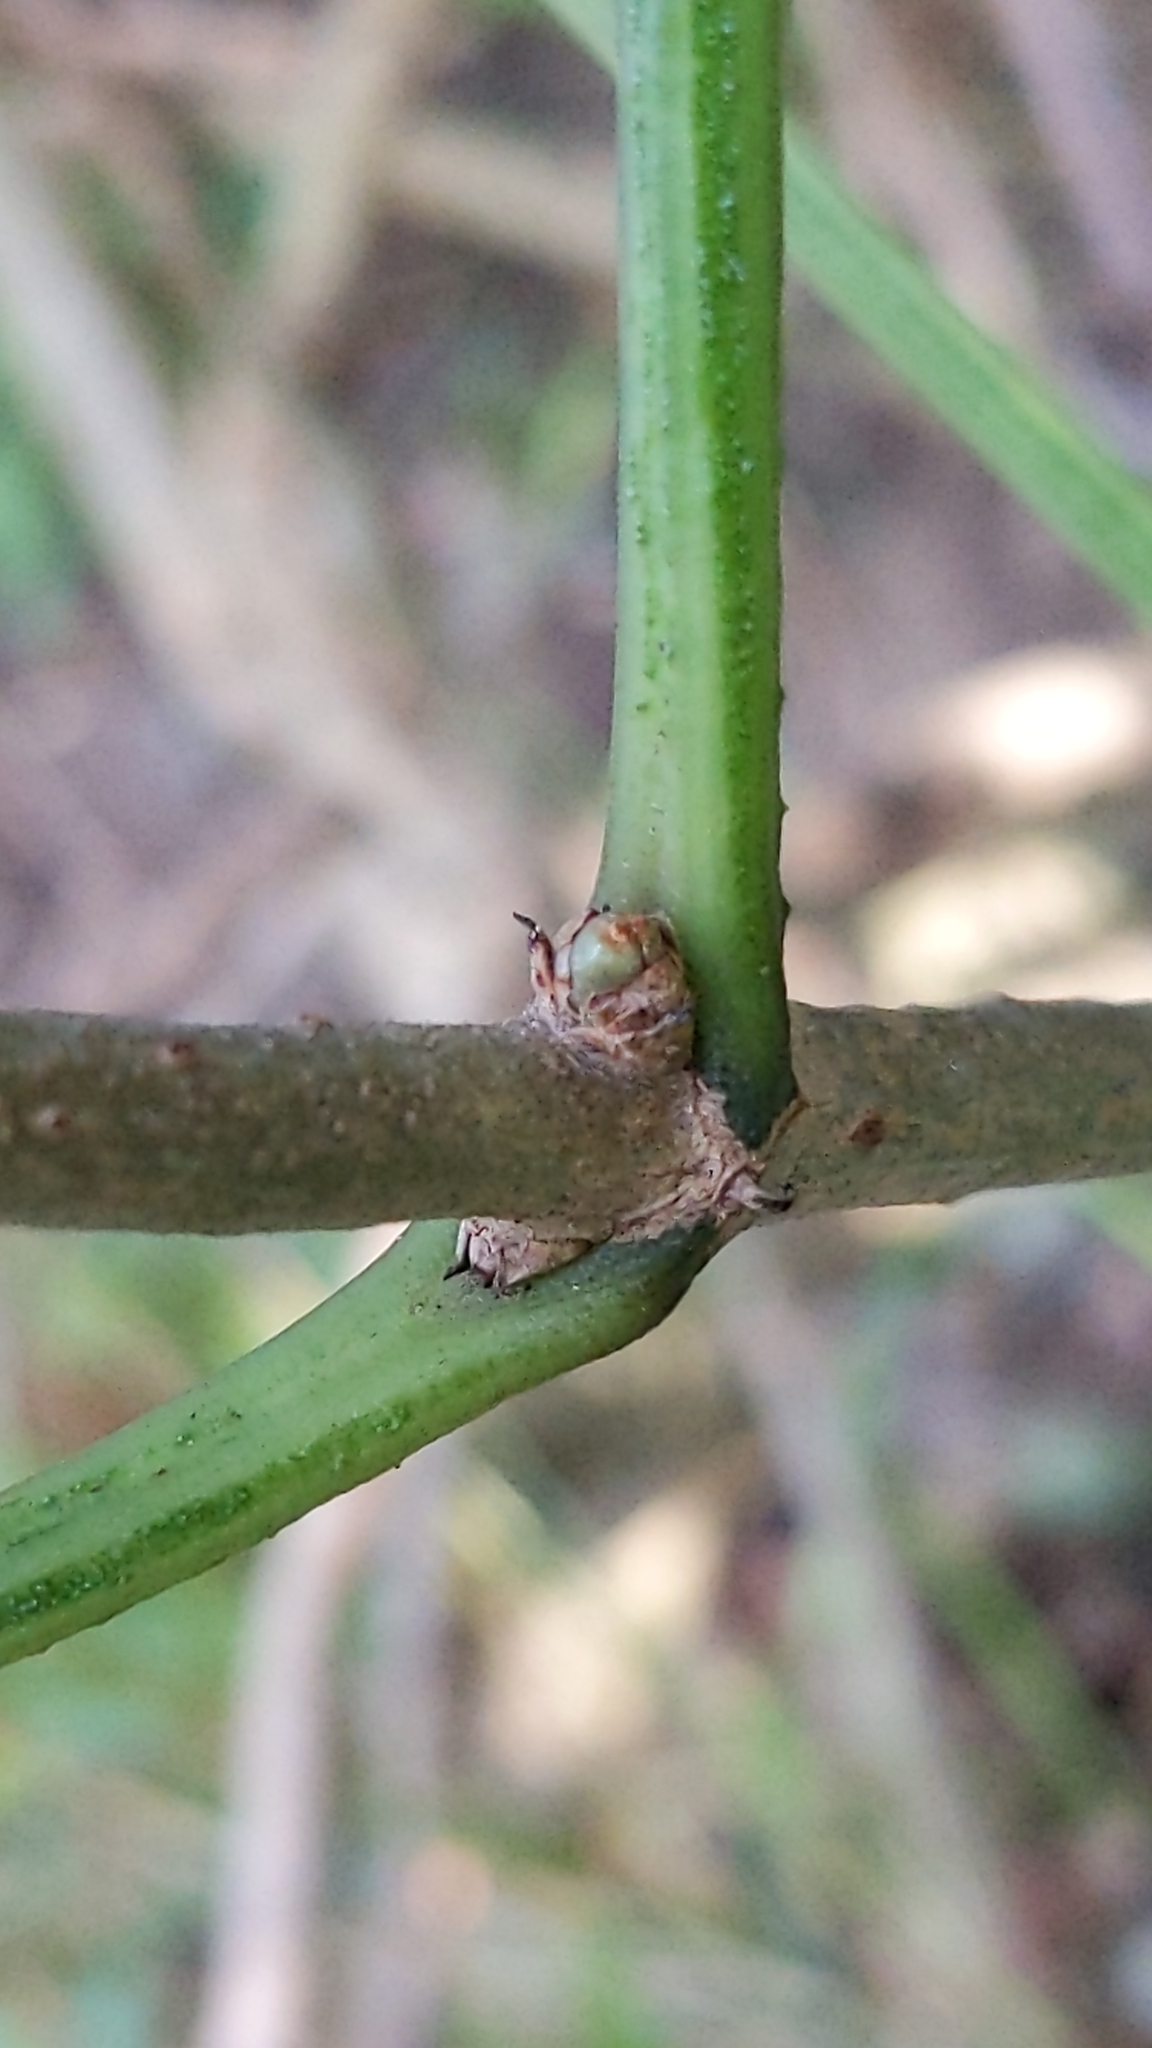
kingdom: Plantae
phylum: Tracheophyta
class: Magnoliopsida
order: Dipsacales
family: Viburnaceae
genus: Sambucus
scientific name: Sambucus nigra
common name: Elder
